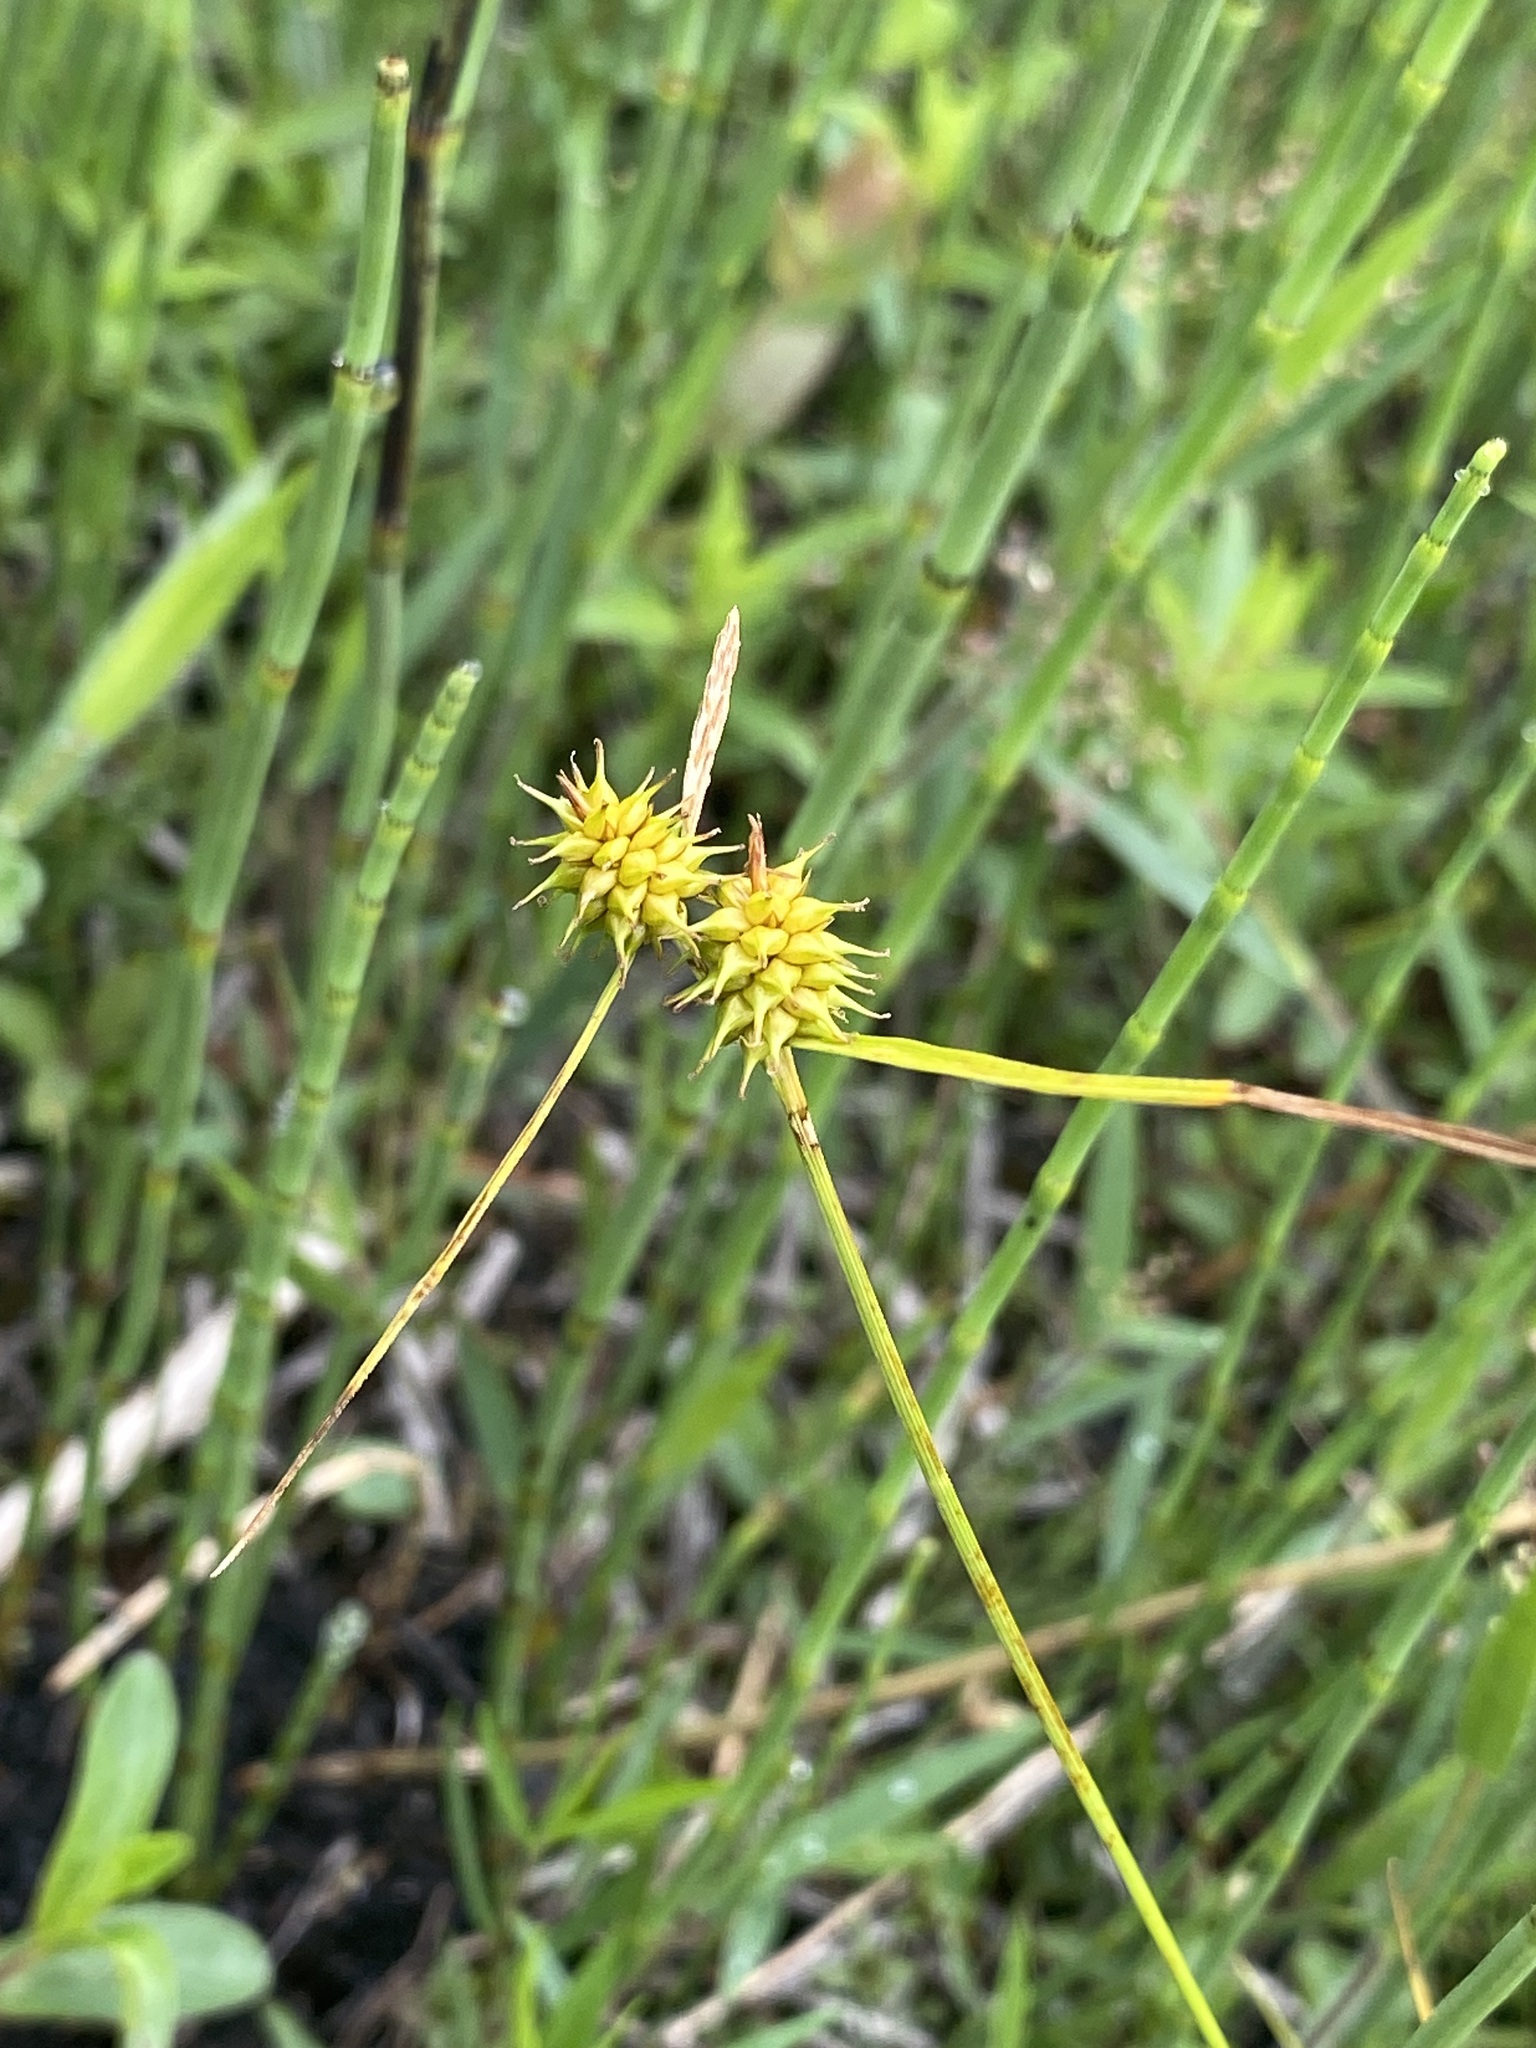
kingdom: Plantae
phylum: Tracheophyta
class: Liliopsida
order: Poales
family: Cyperaceae
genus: Carex
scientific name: Carex flava
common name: Large yellow-sedge
